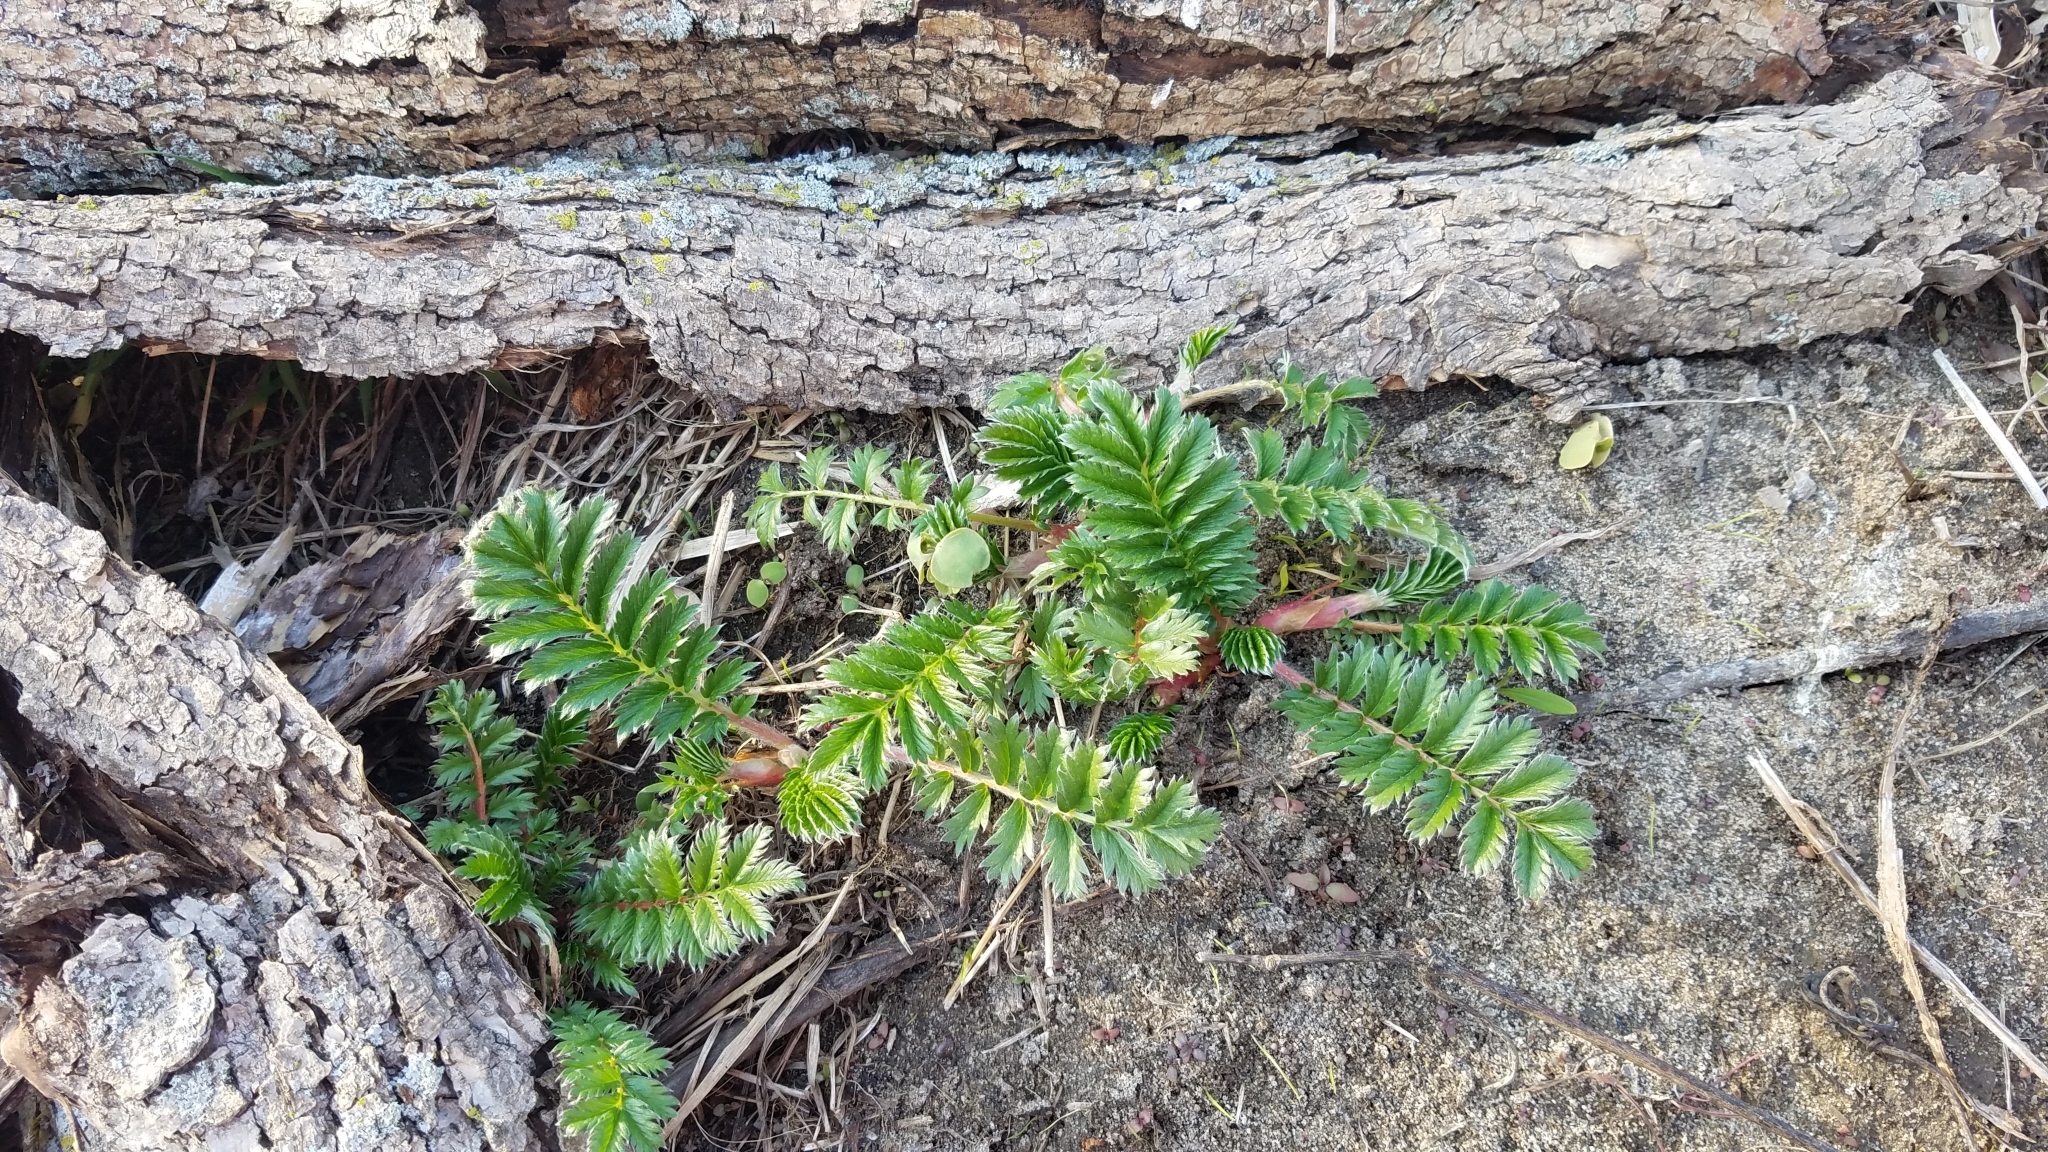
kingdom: Plantae
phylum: Tracheophyta
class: Magnoliopsida
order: Rosales
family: Rosaceae
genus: Argentina
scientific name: Argentina anserina
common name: Common silverweed
